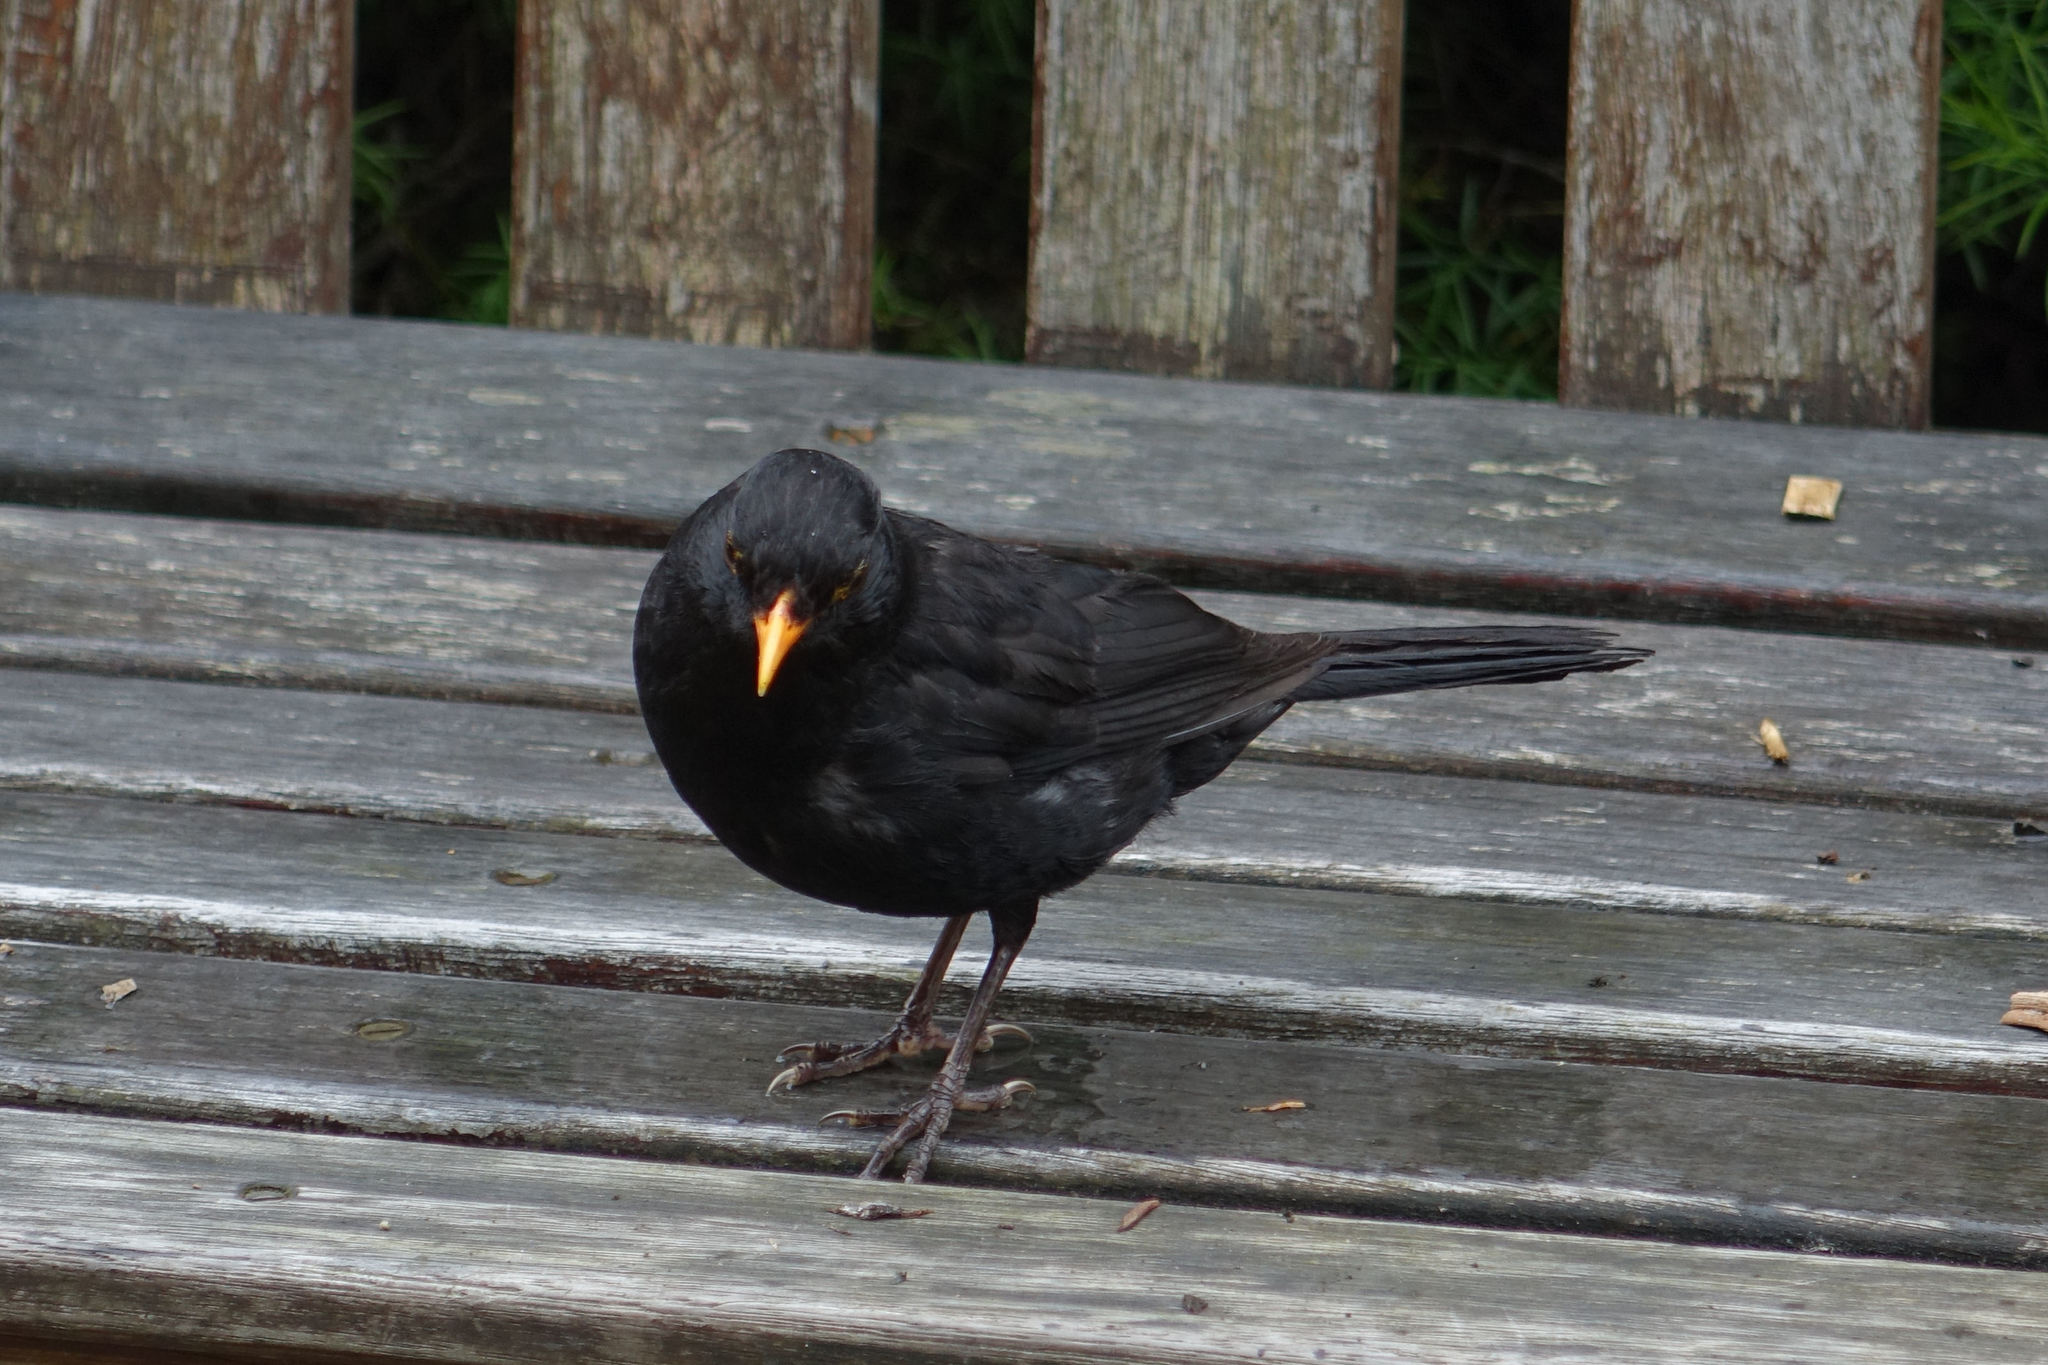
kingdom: Animalia
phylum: Chordata
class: Aves
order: Passeriformes
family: Turdidae
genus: Turdus
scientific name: Turdus merula
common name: Common blackbird
